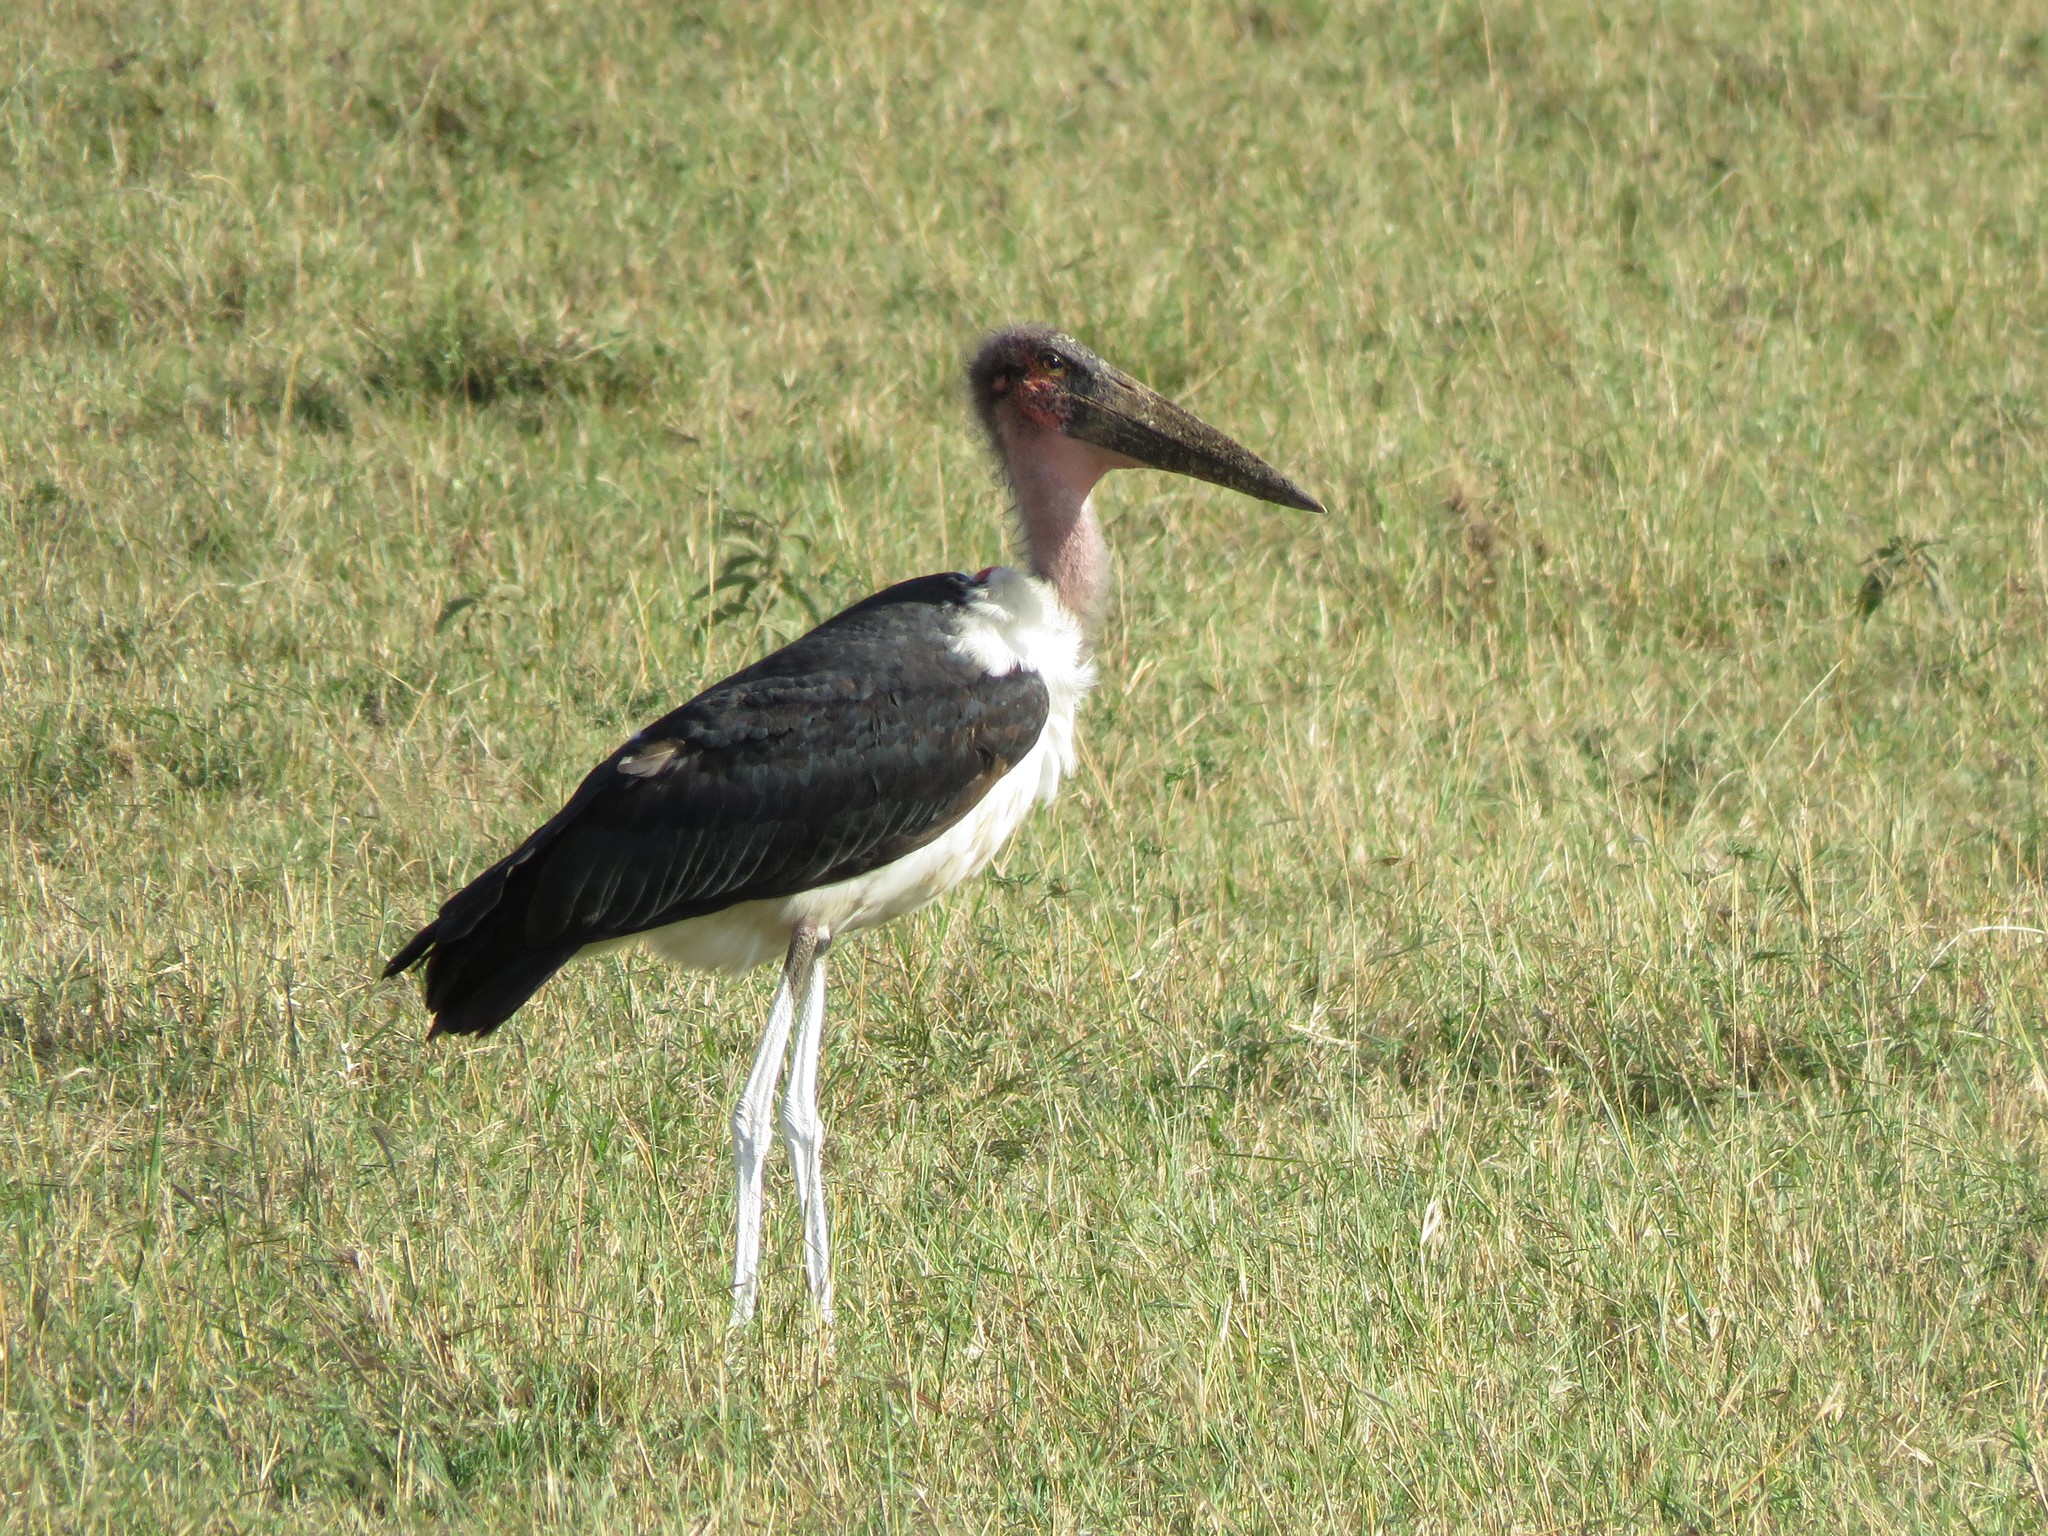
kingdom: Animalia
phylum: Chordata
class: Aves
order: Ciconiiformes
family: Ciconiidae
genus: Leptoptilos
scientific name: Leptoptilos crumenifer
